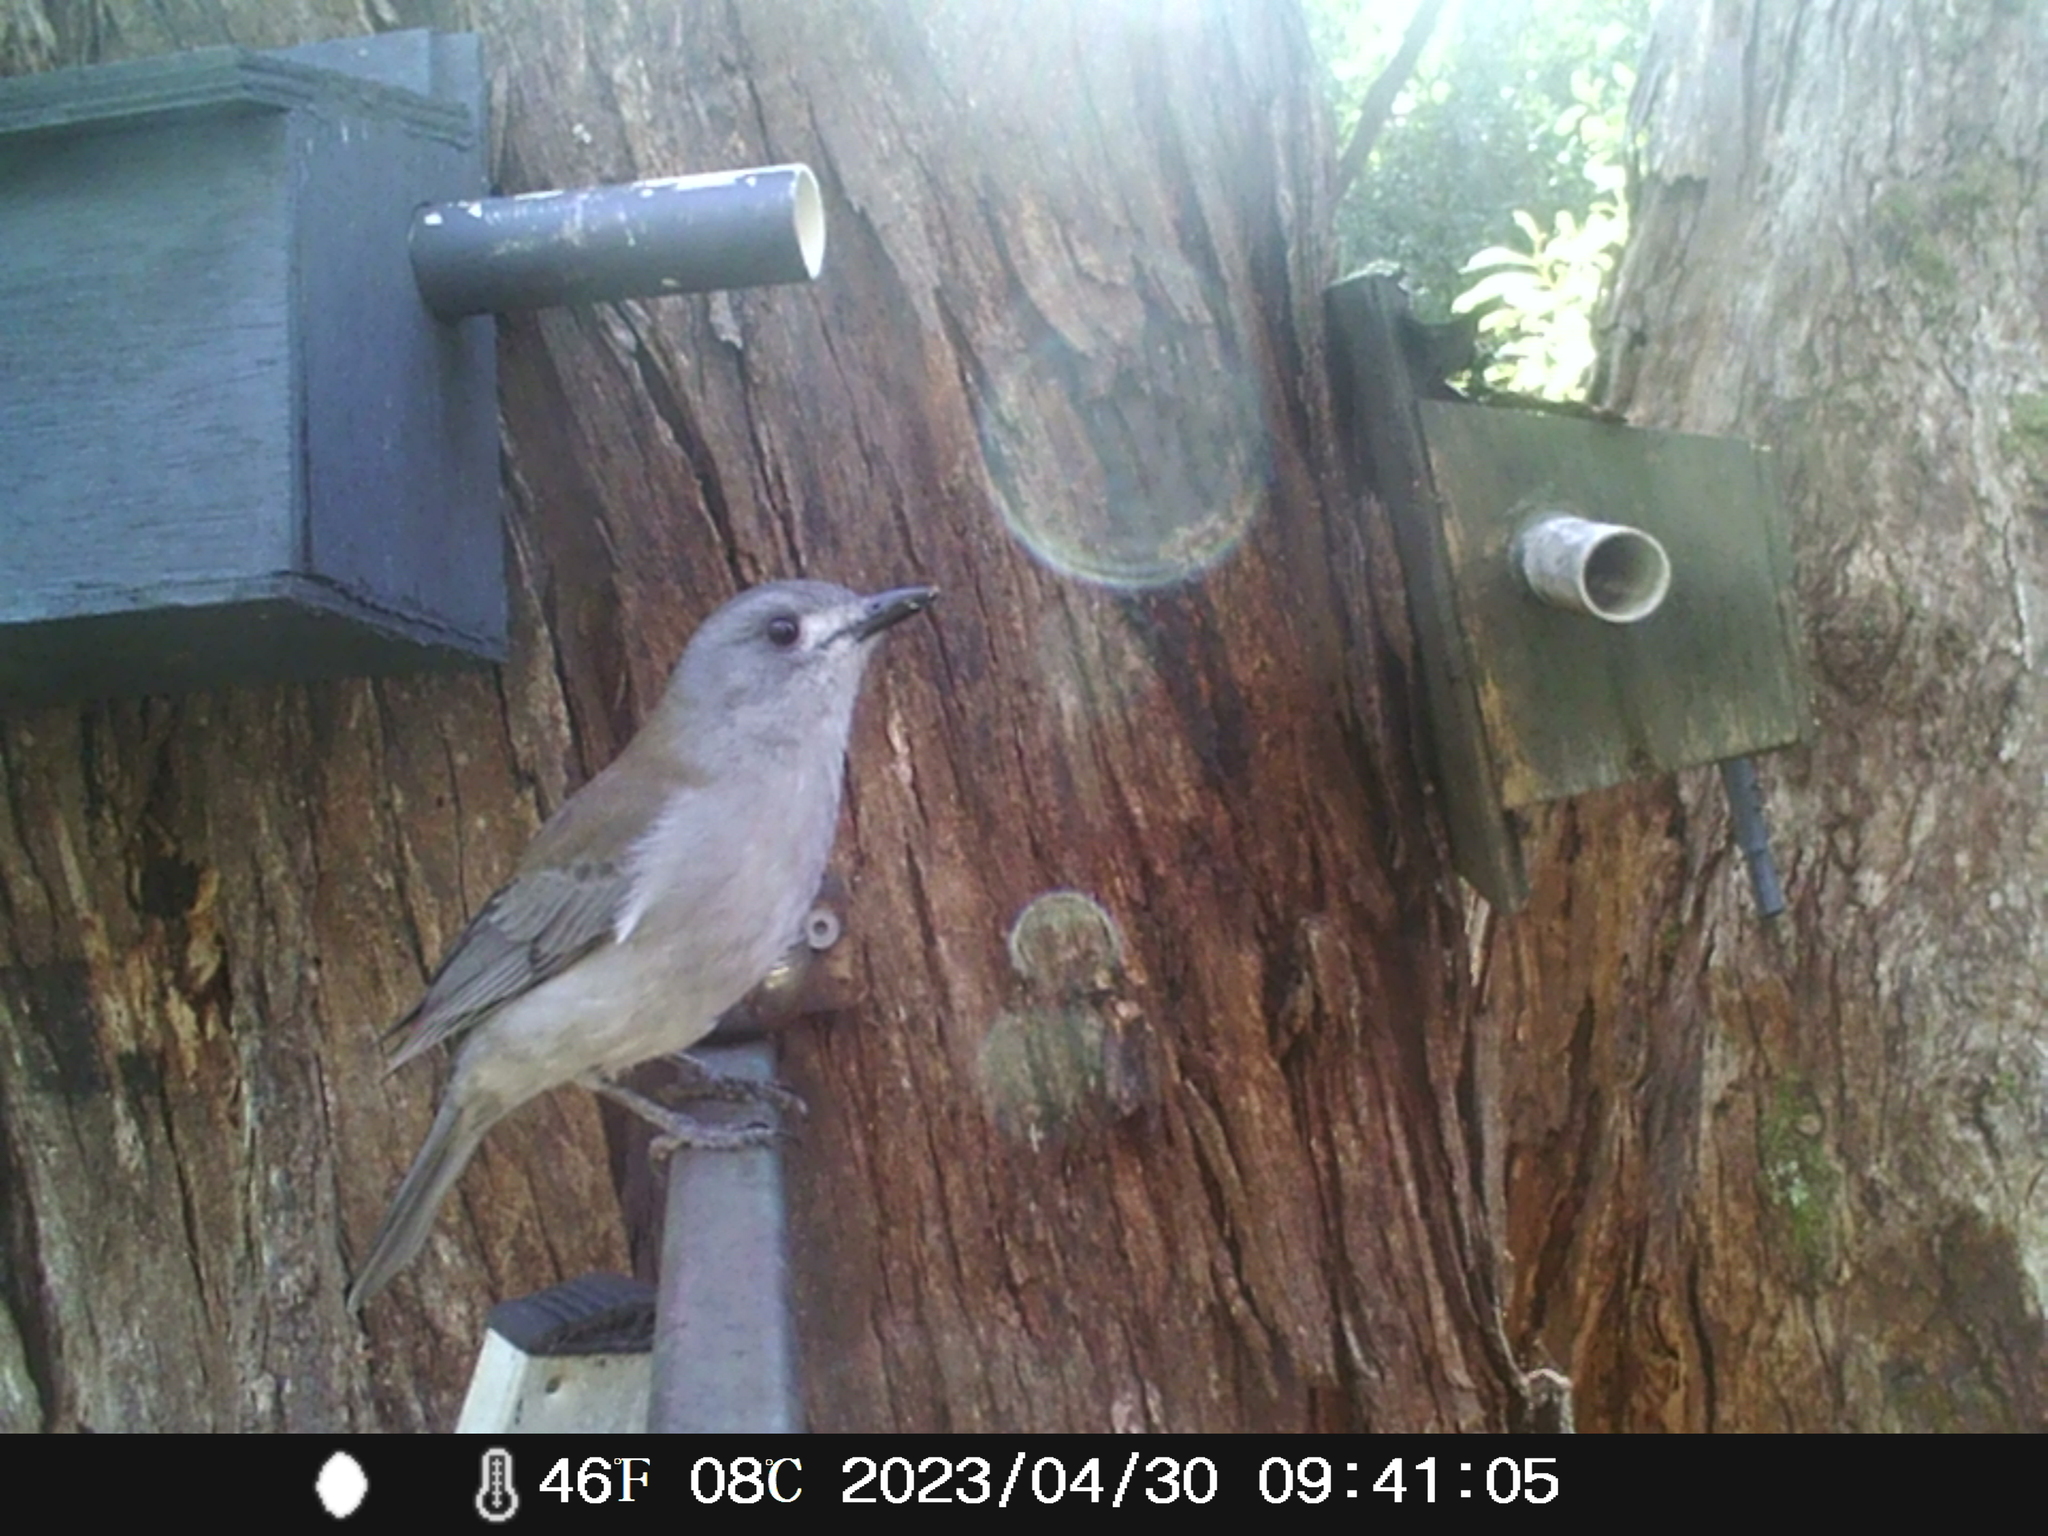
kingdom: Animalia
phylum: Chordata
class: Aves
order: Passeriformes
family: Pachycephalidae
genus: Colluricincla
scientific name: Colluricincla harmonica
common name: Grey shrikethrush
